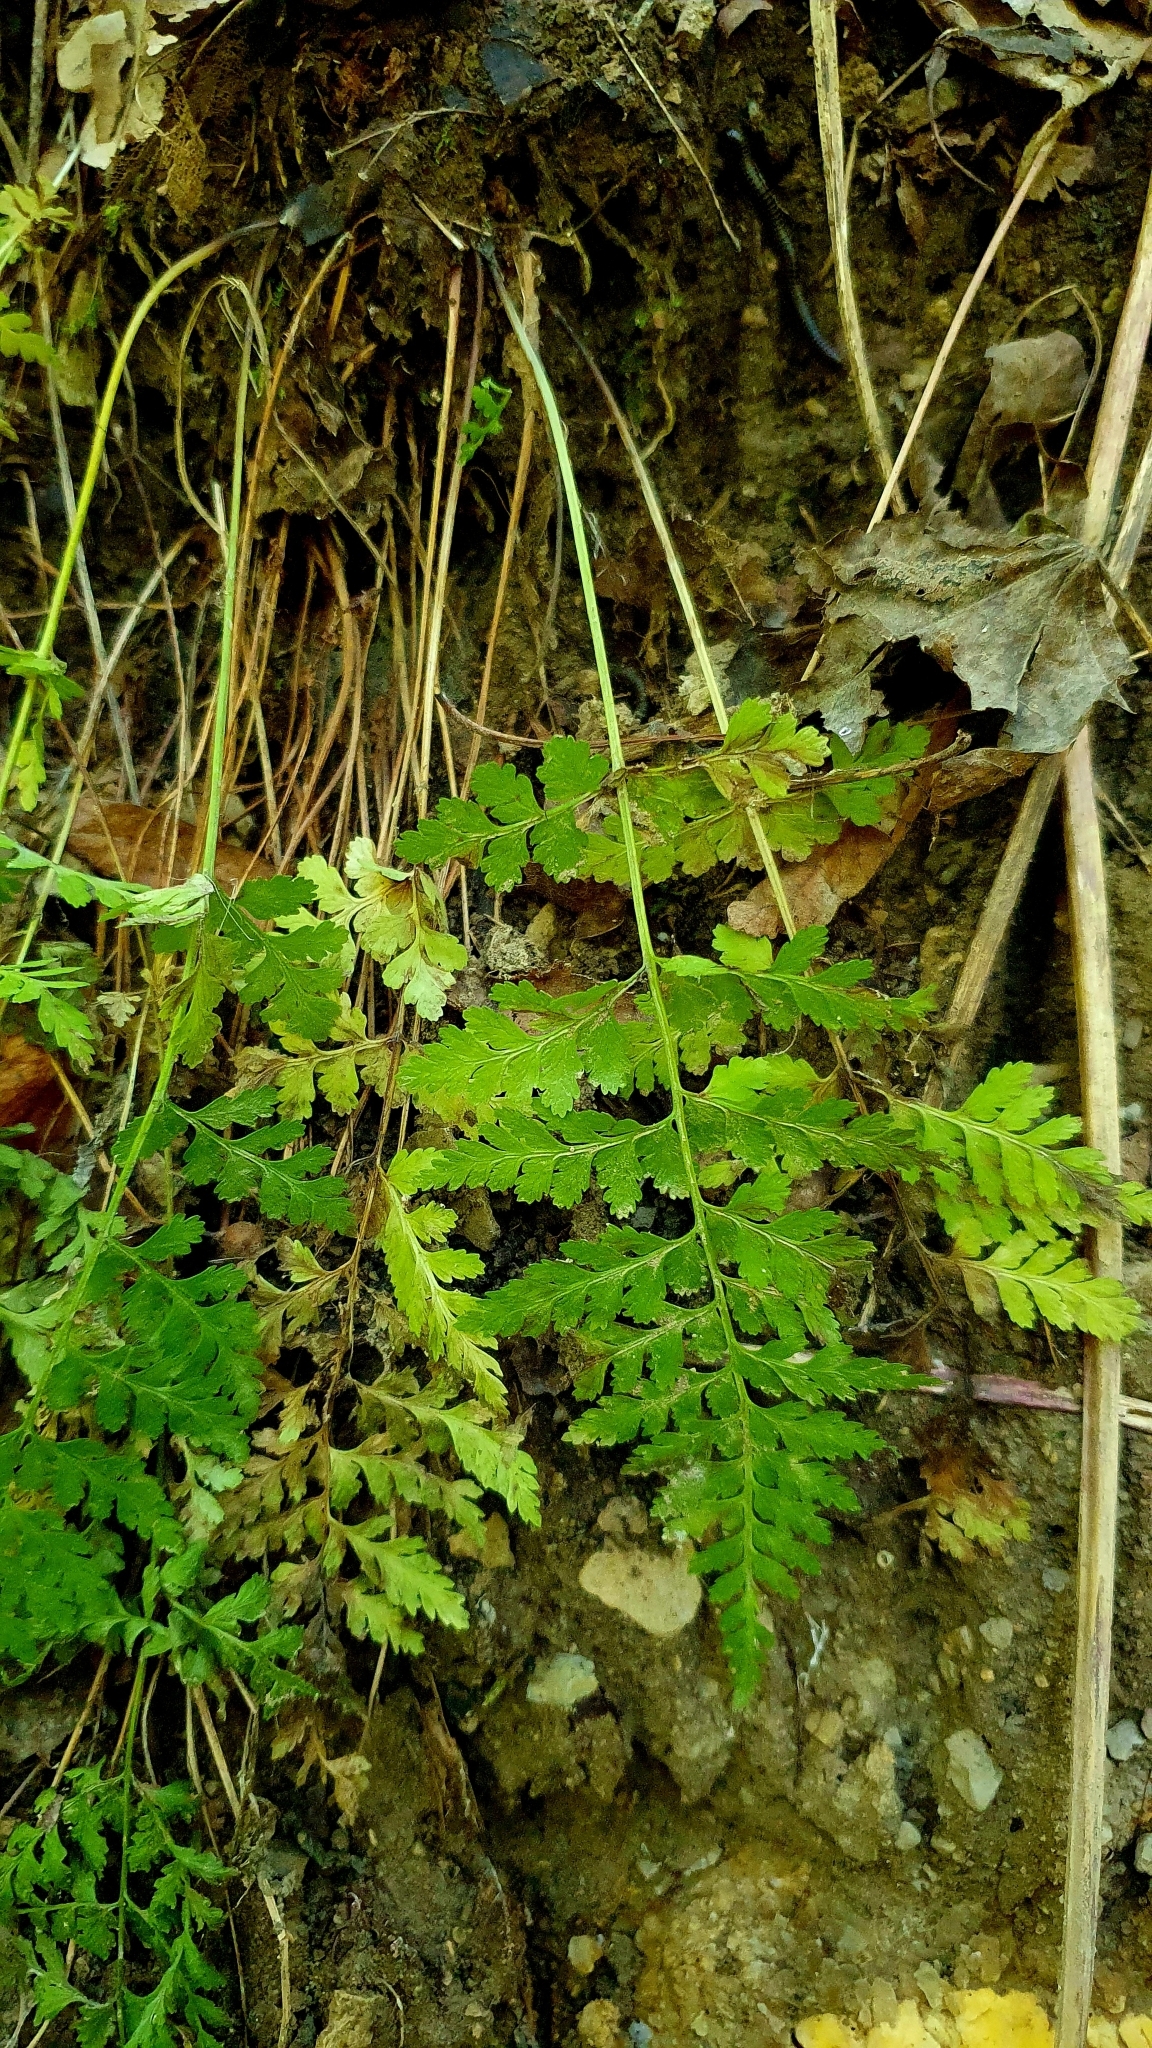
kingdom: Plantae
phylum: Tracheophyta
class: Polypodiopsida
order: Polypodiales
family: Cystopteridaceae
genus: Cystopteris
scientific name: Cystopteris fragilis
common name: Brittle bladder fern
